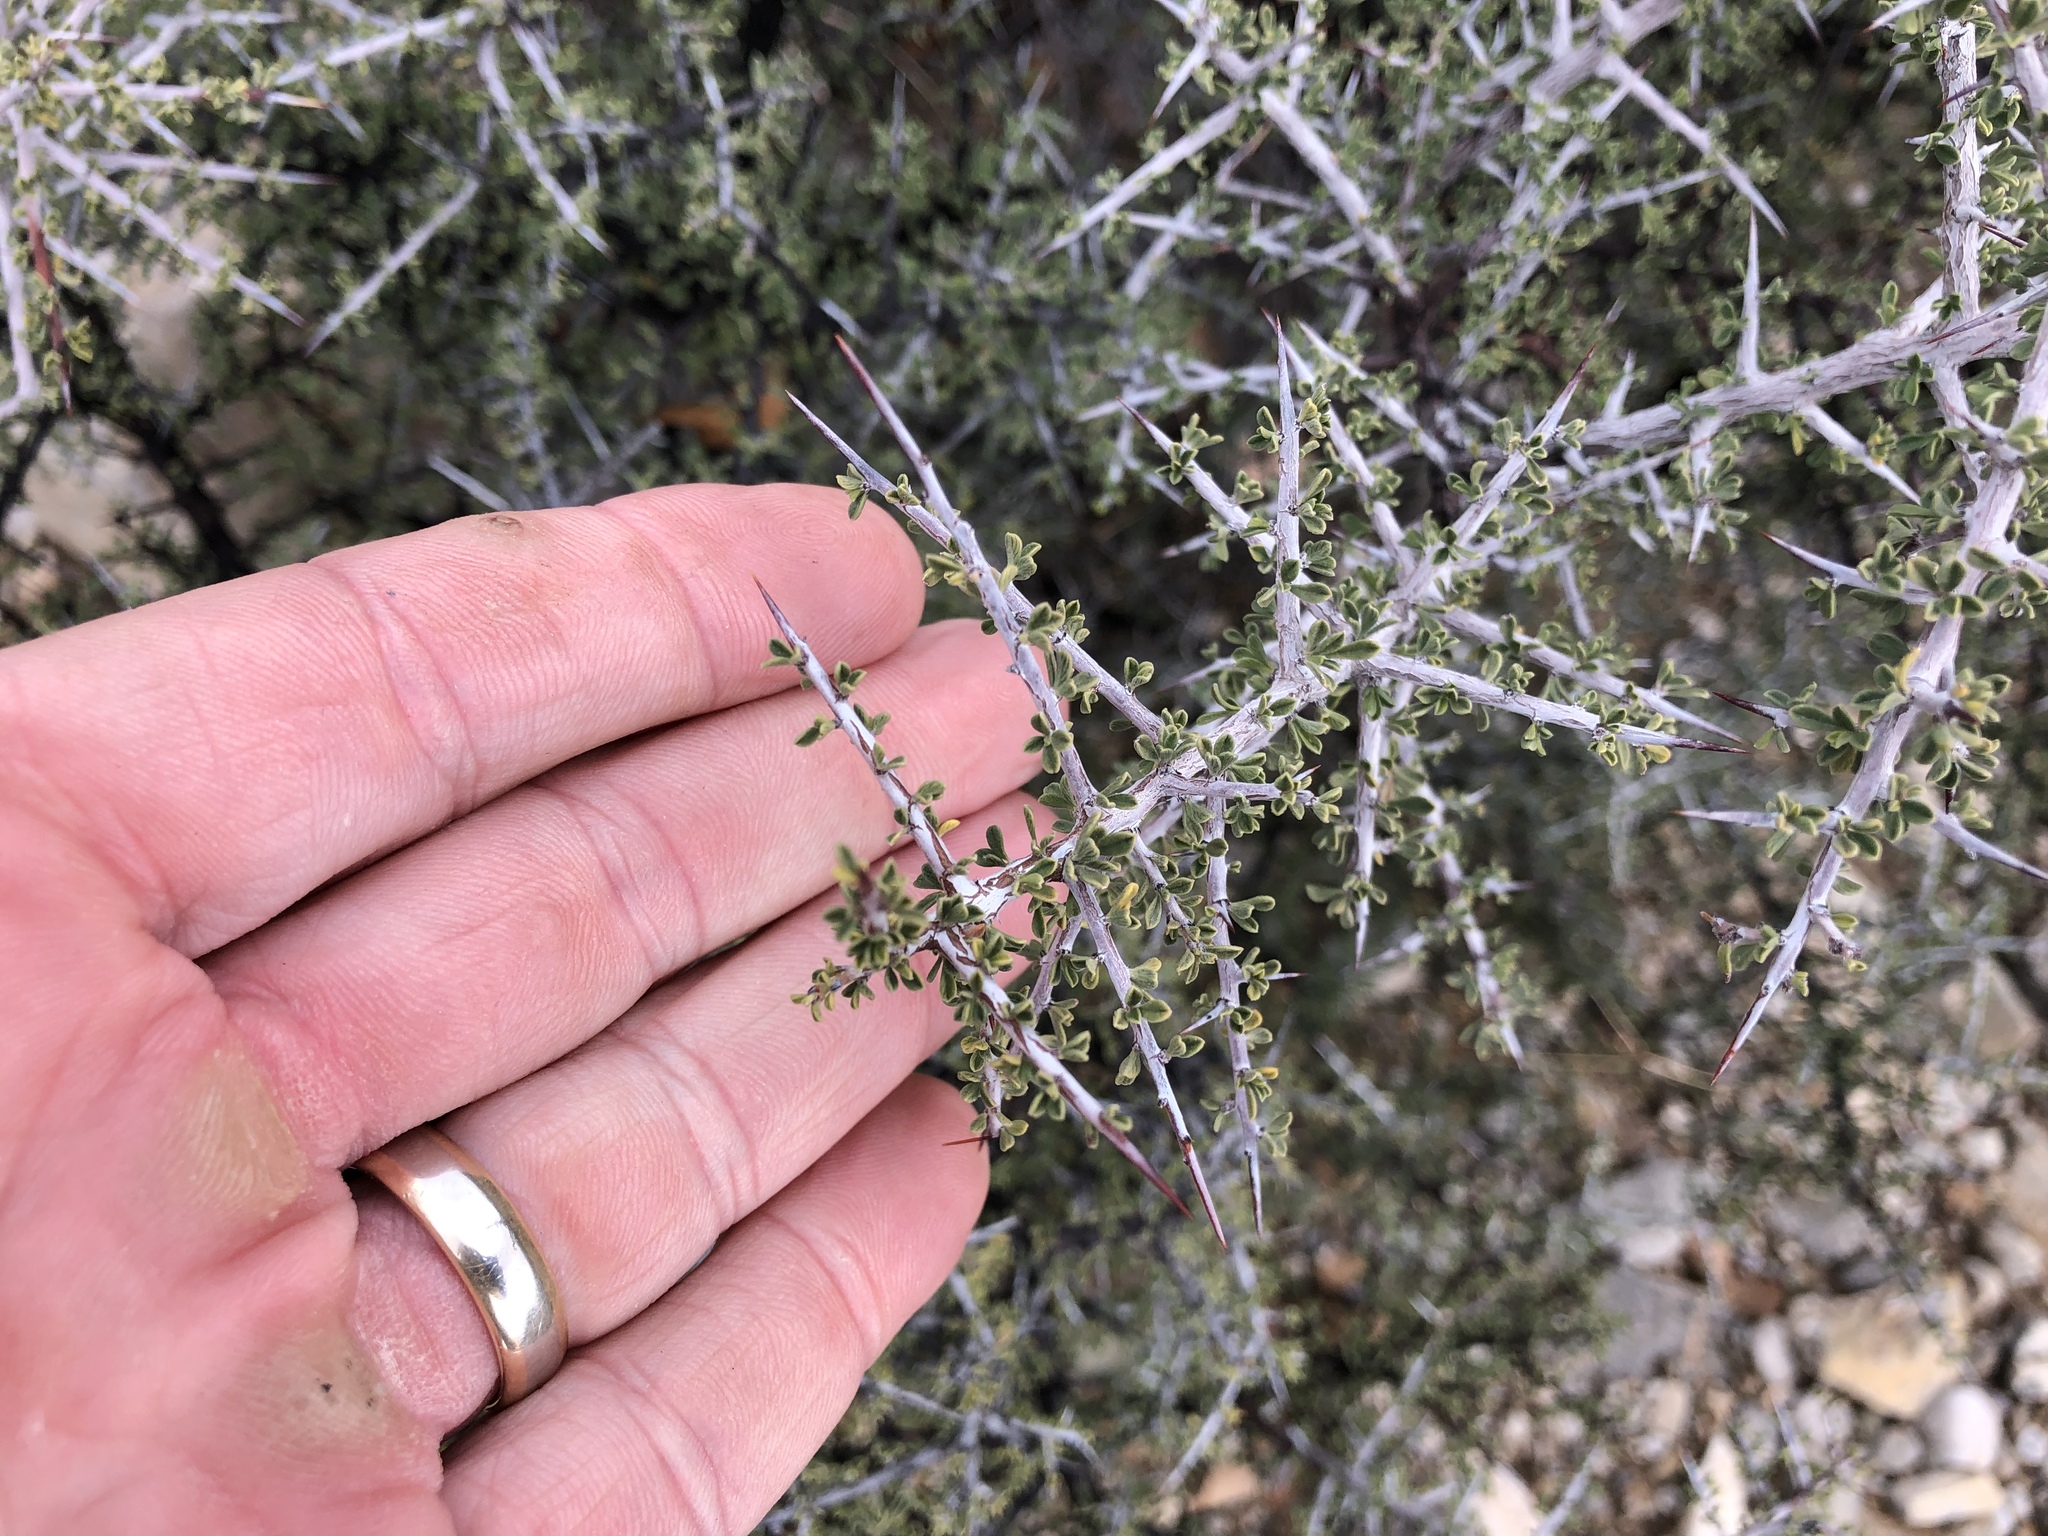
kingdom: Plantae
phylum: Tracheophyta
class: Magnoliopsida
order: Rosales
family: Rhamnaceae
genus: Condalia
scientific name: Condalia warnockii
